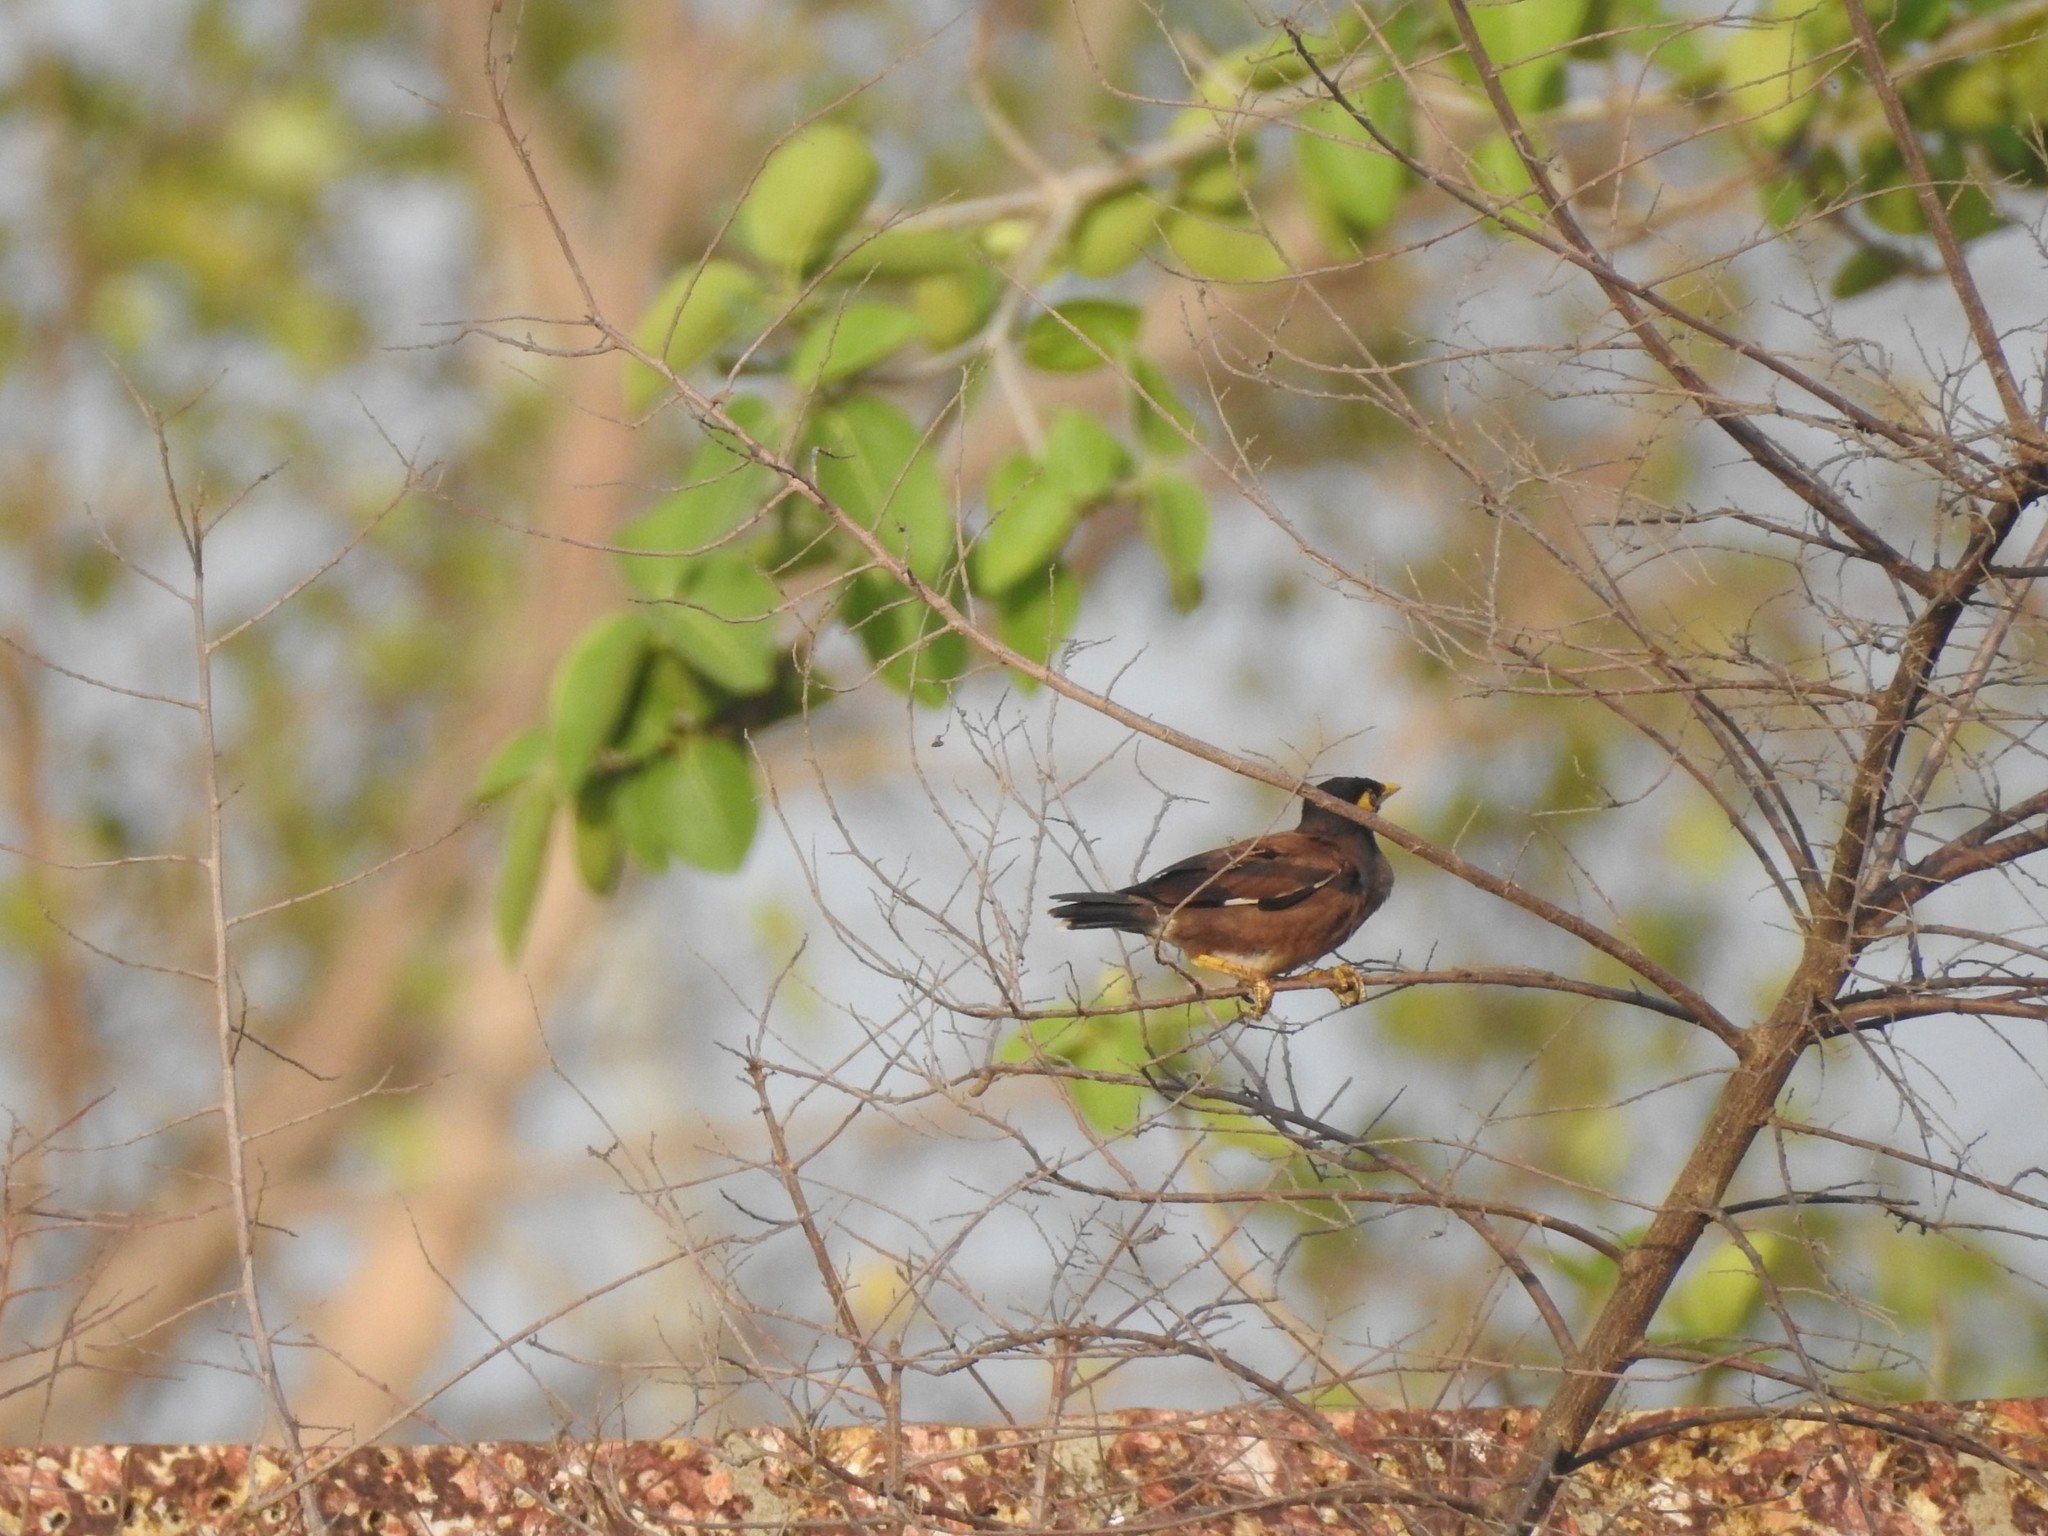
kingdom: Animalia
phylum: Chordata
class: Aves
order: Passeriformes
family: Sturnidae
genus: Acridotheres
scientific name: Acridotheres tristis
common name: Common myna
